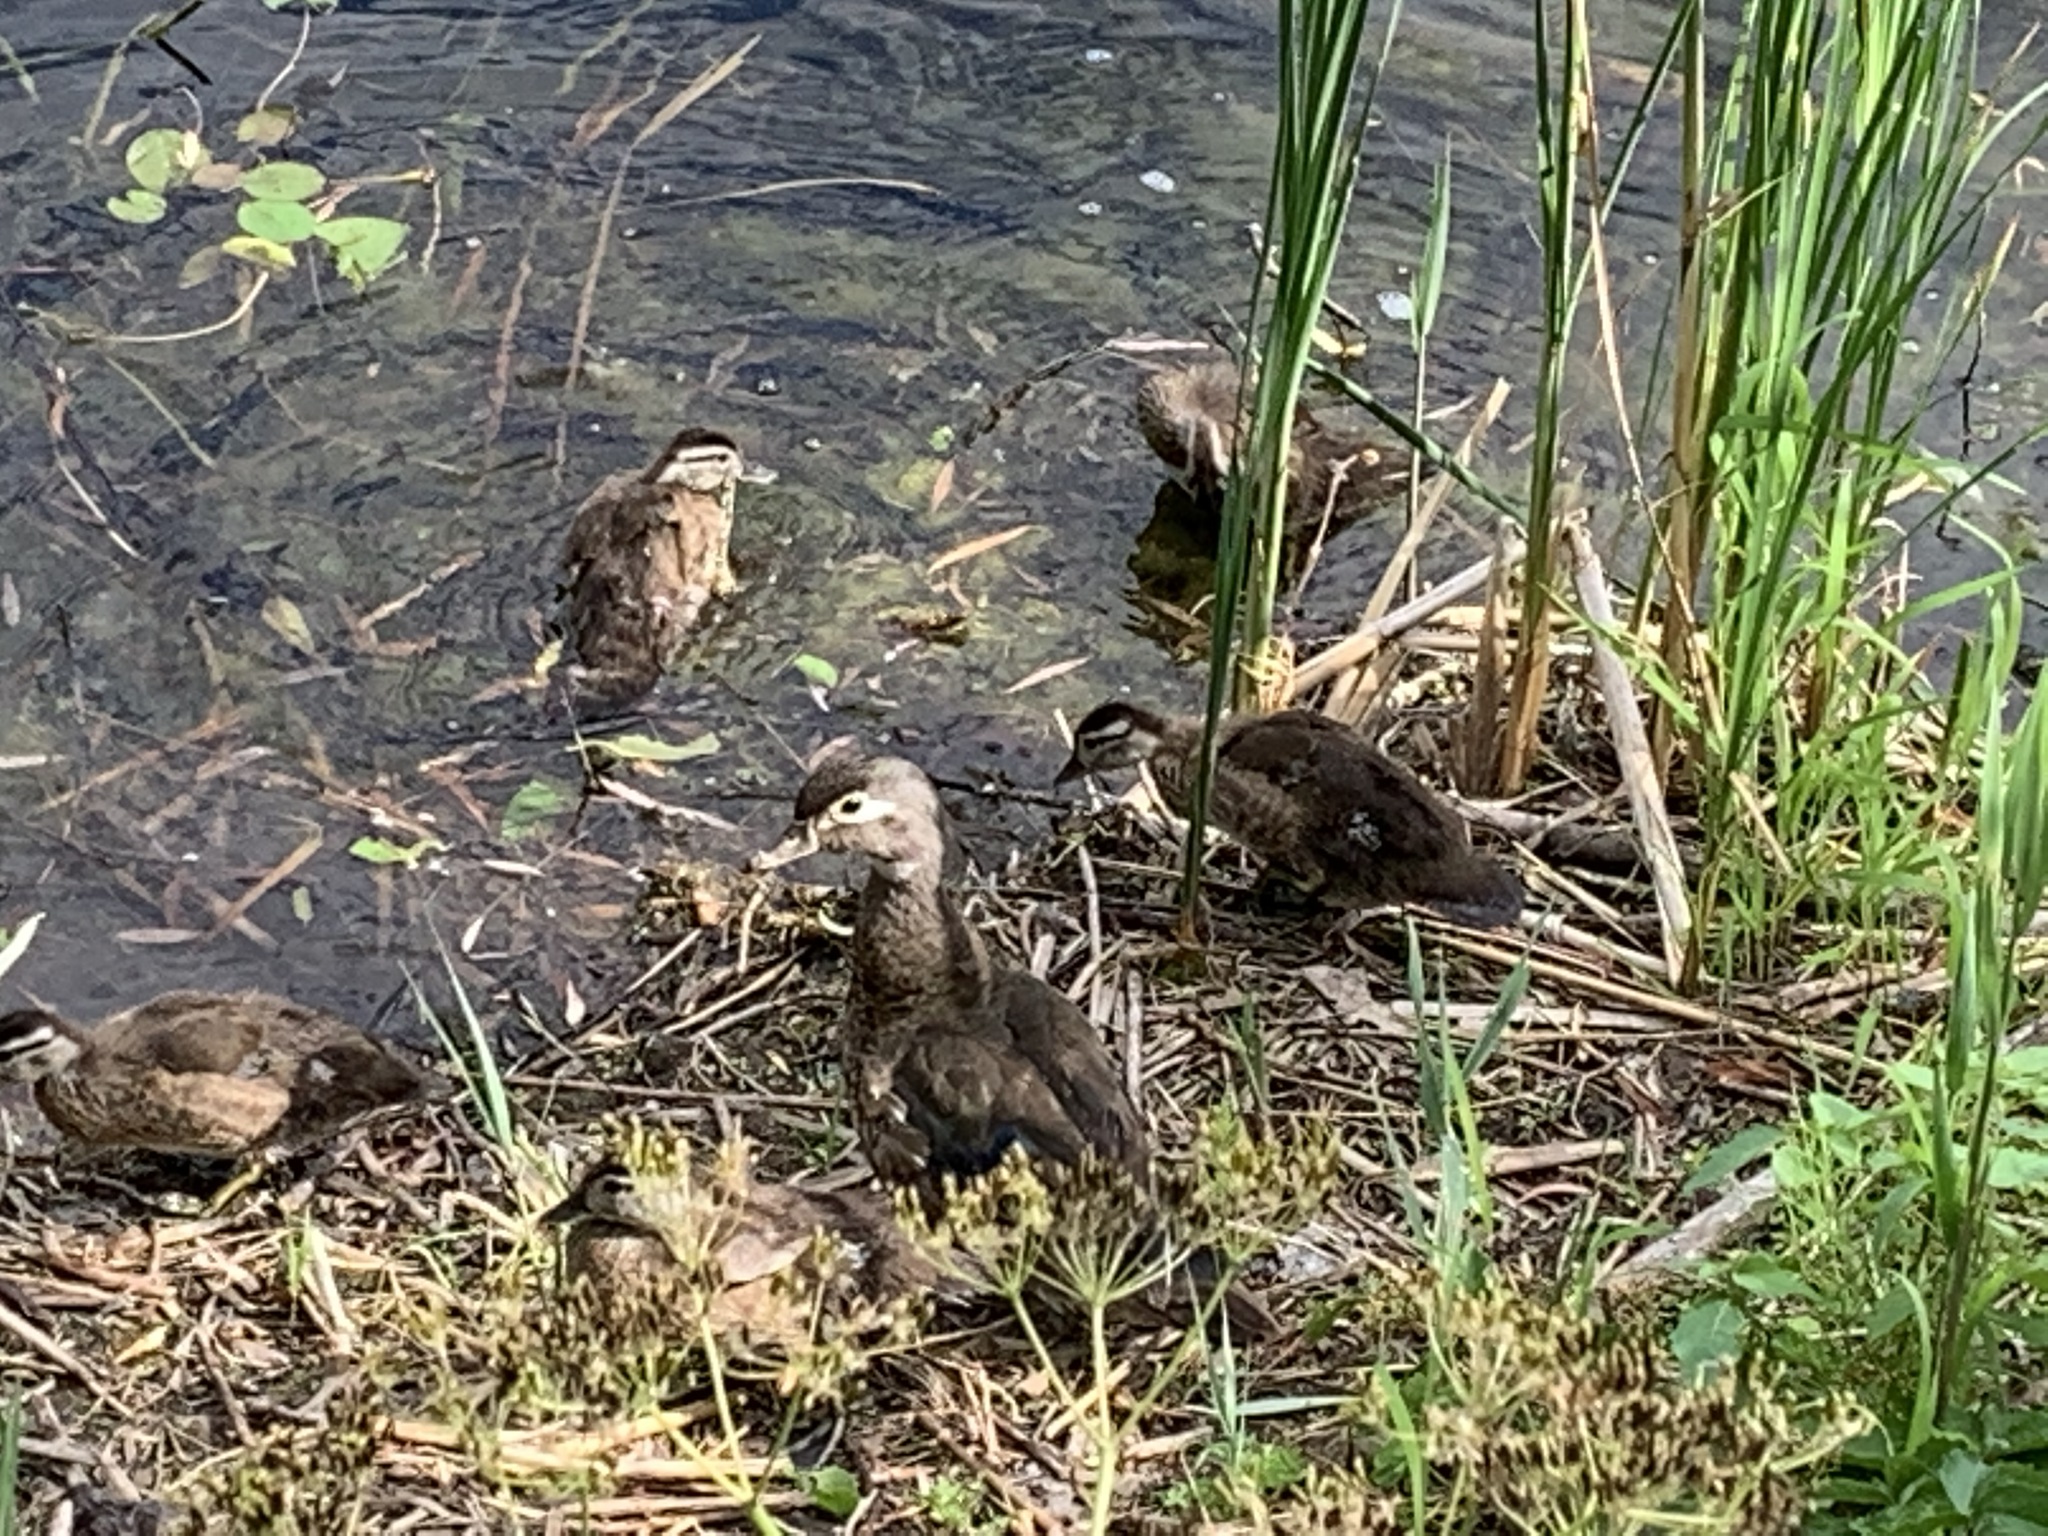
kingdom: Animalia
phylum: Chordata
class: Aves
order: Anseriformes
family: Anatidae
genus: Aix
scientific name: Aix sponsa
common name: Wood duck
